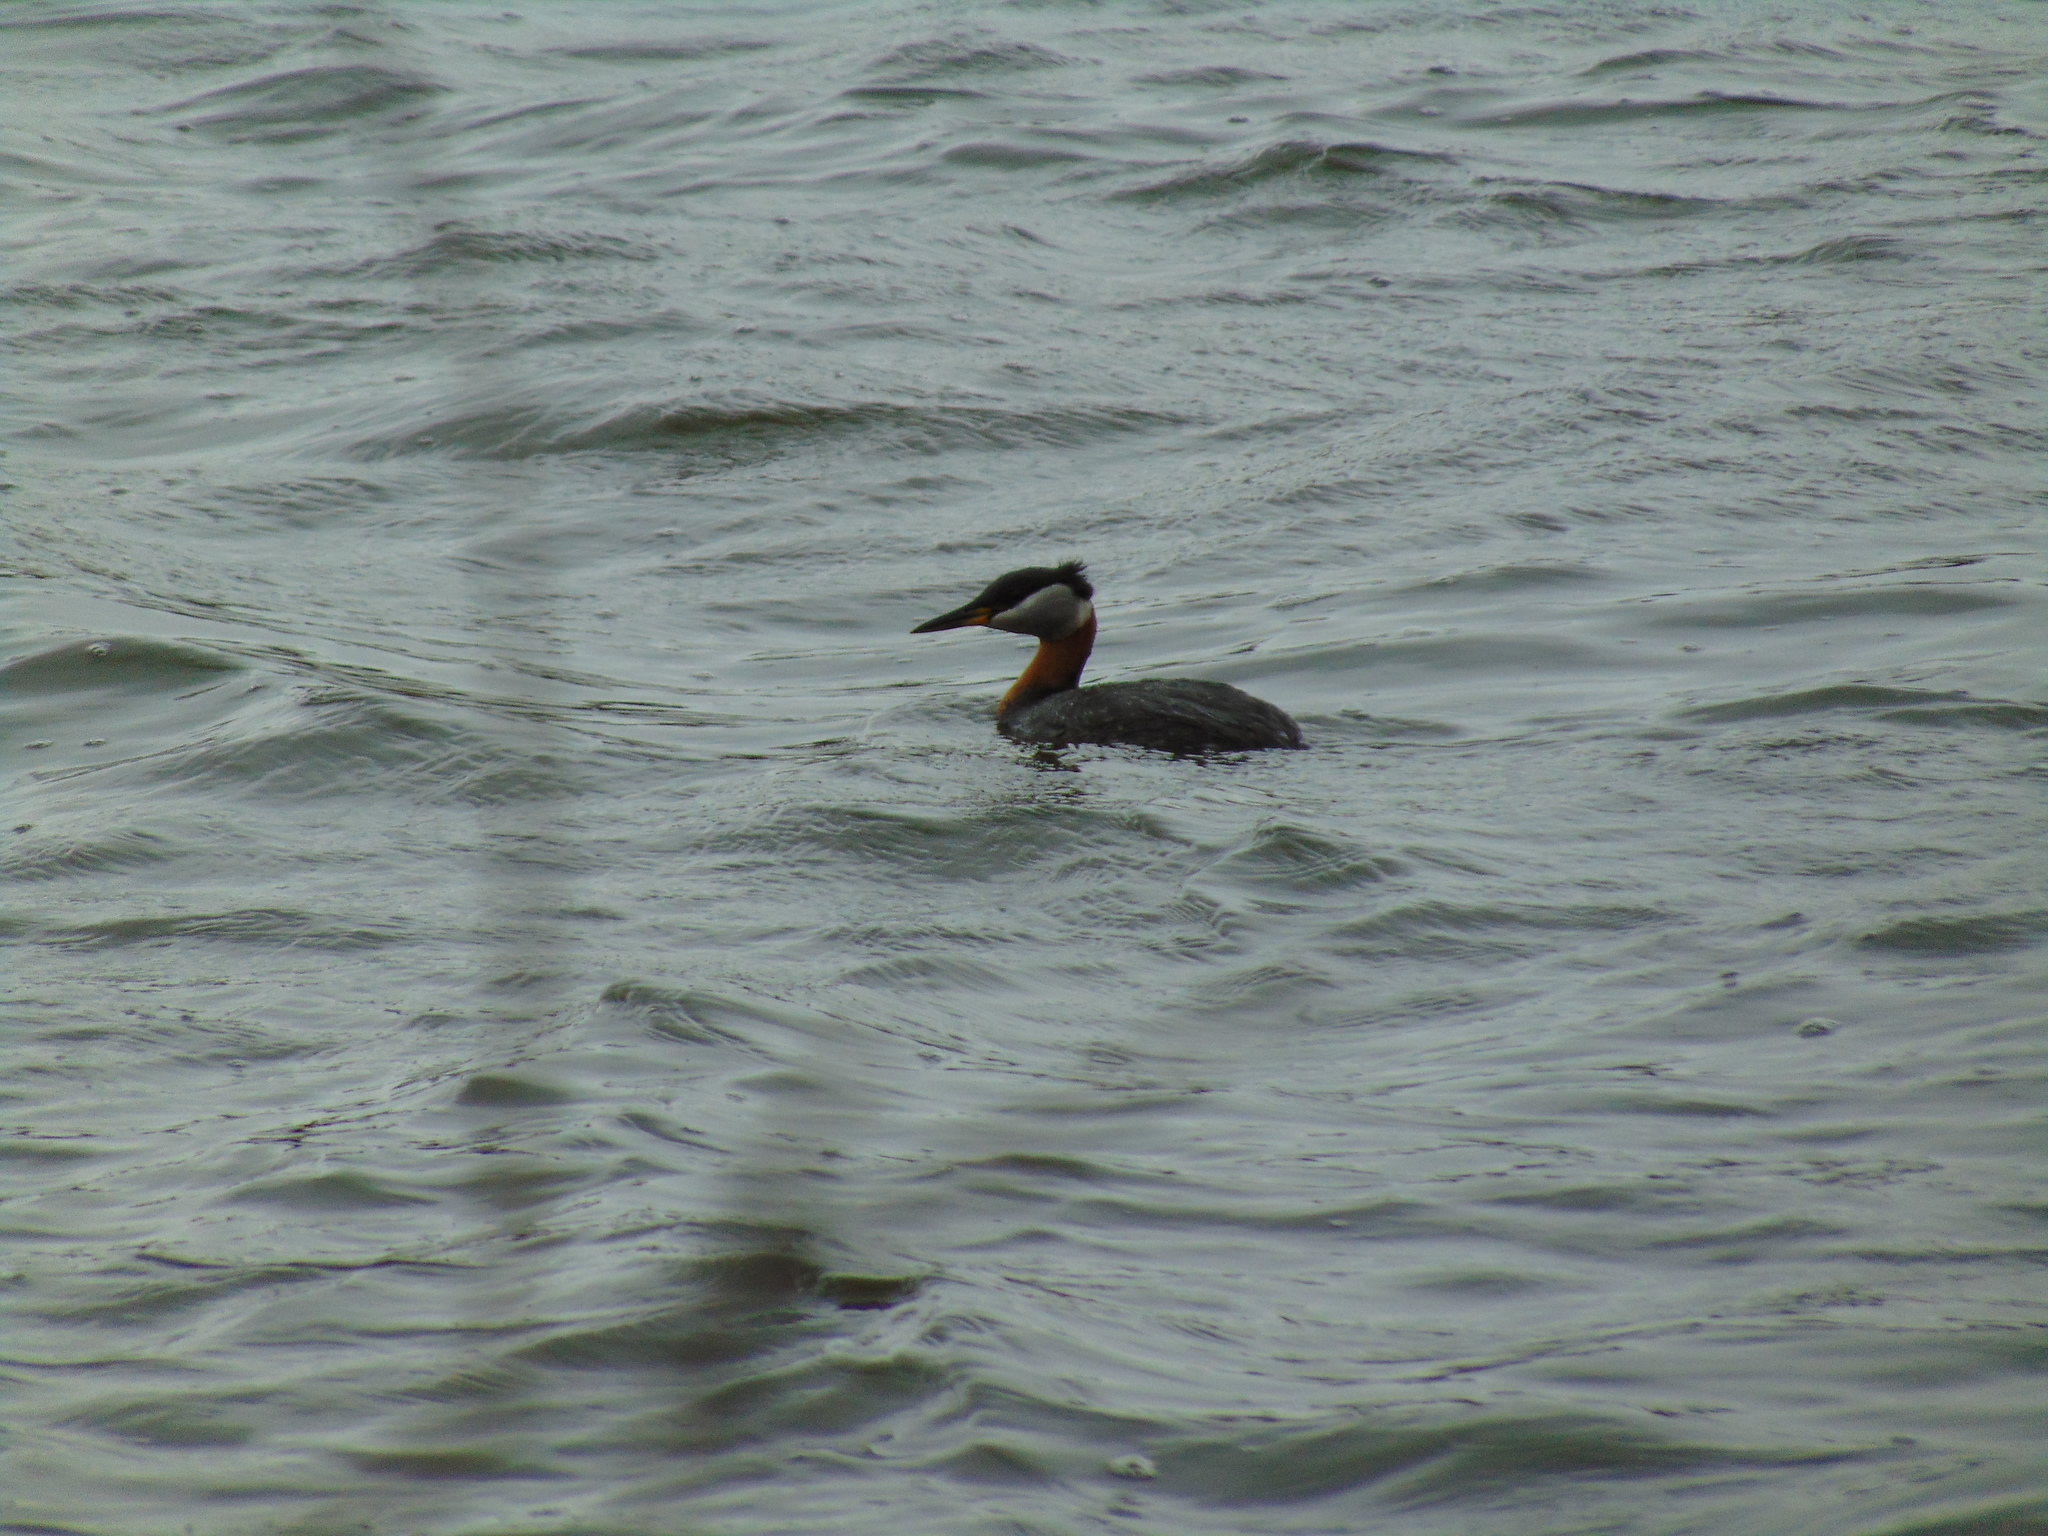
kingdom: Animalia
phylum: Chordata
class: Aves
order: Podicipediformes
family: Podicipedidae
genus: Podiceps
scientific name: Podiceps grisegena
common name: Red-necked grebe
